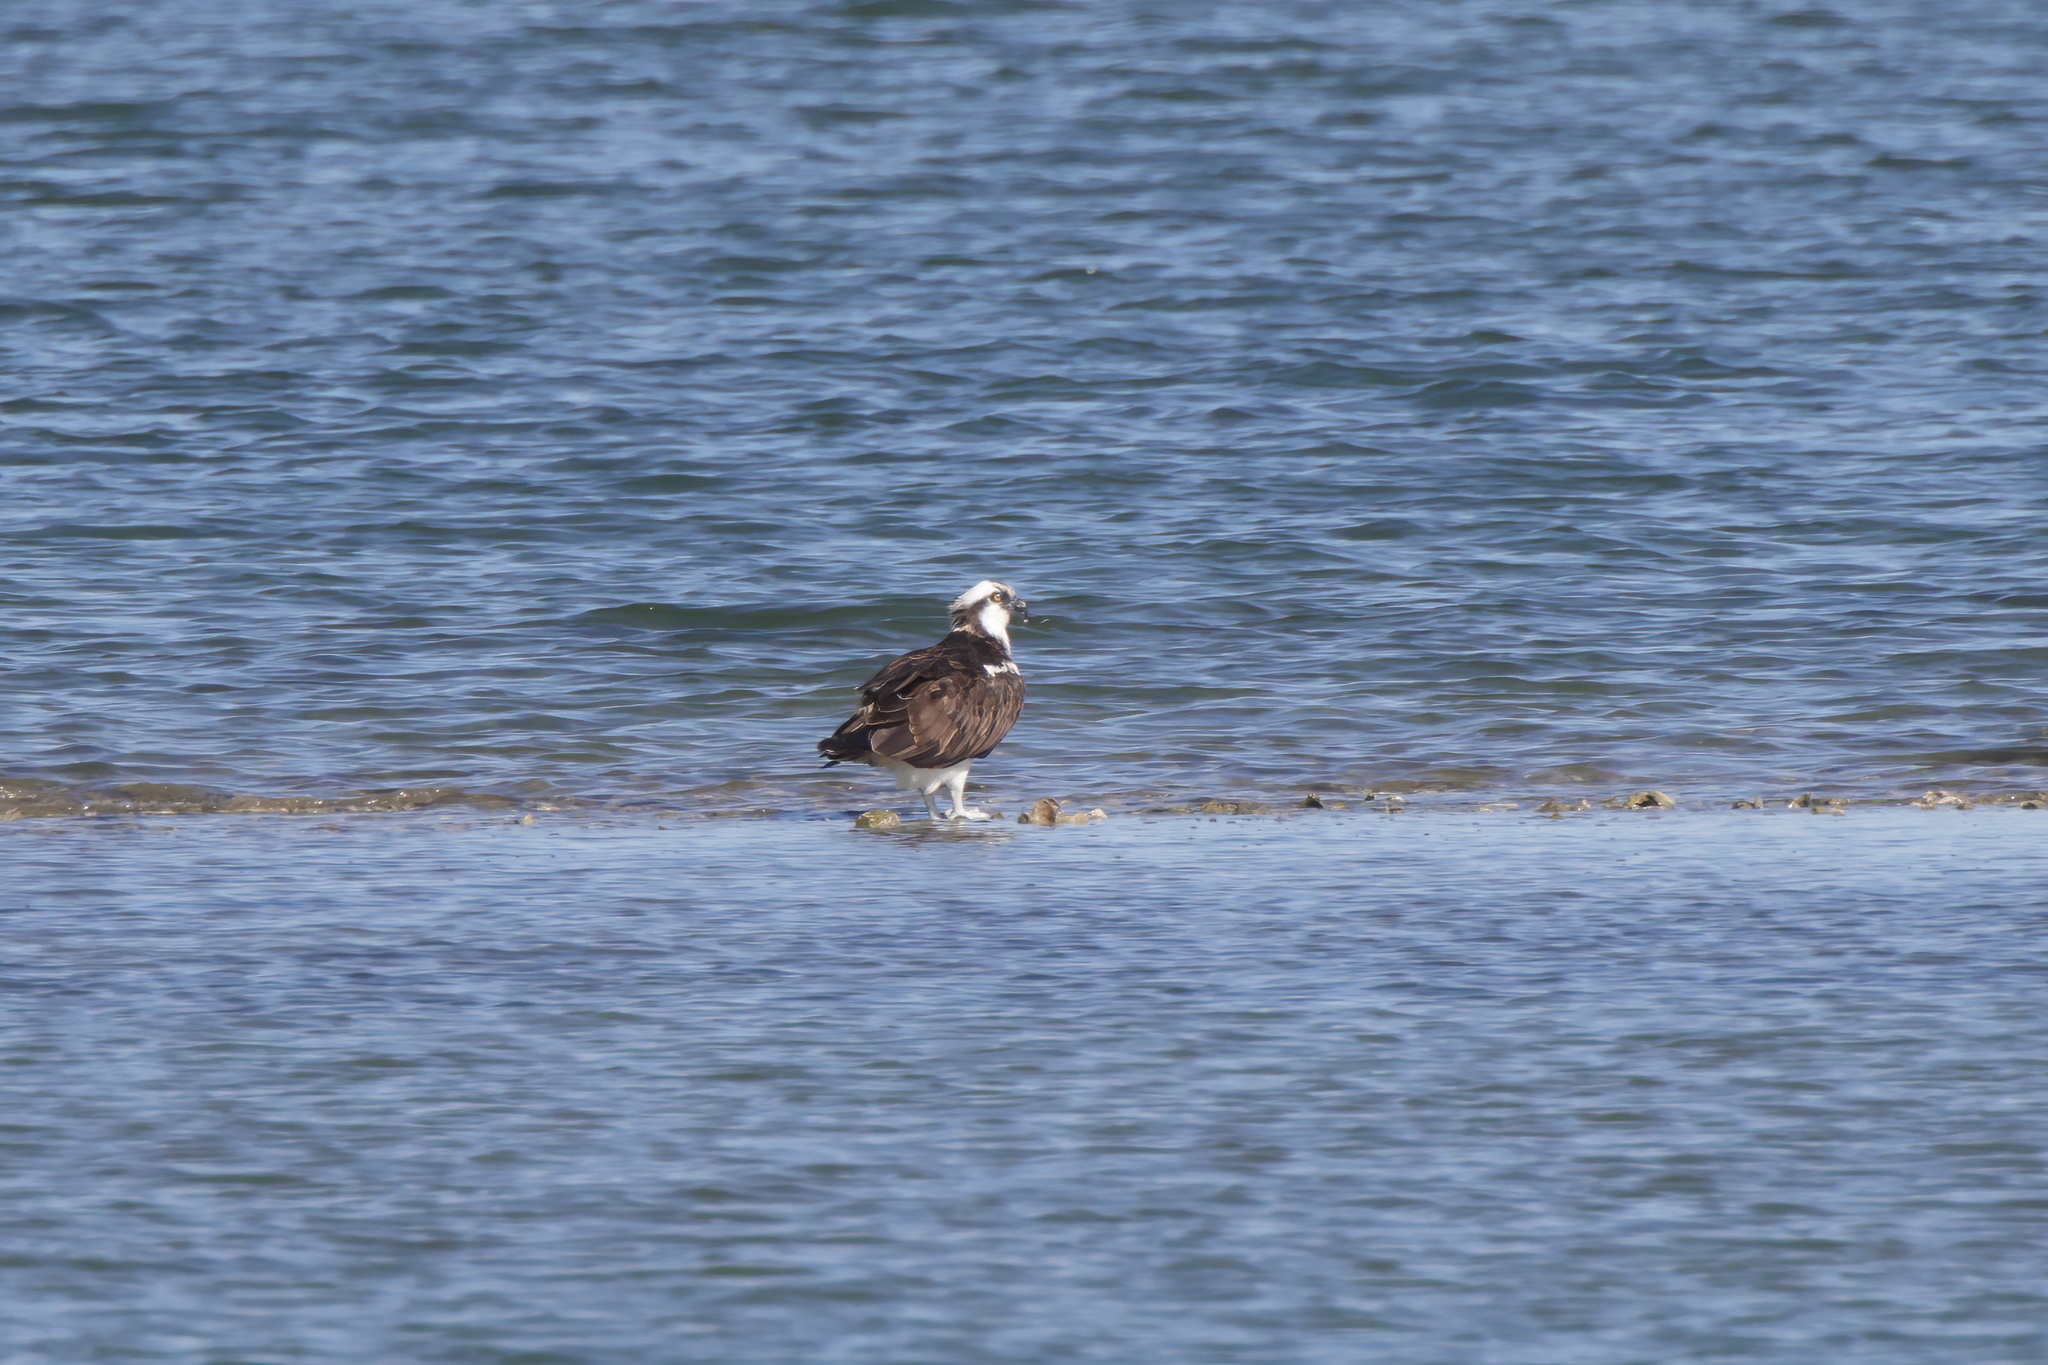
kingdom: Animalia
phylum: Chordata
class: Aves
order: Accipitriformes
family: Pandionidae
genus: Pandion
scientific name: Pandion haliaetus
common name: Osprey
